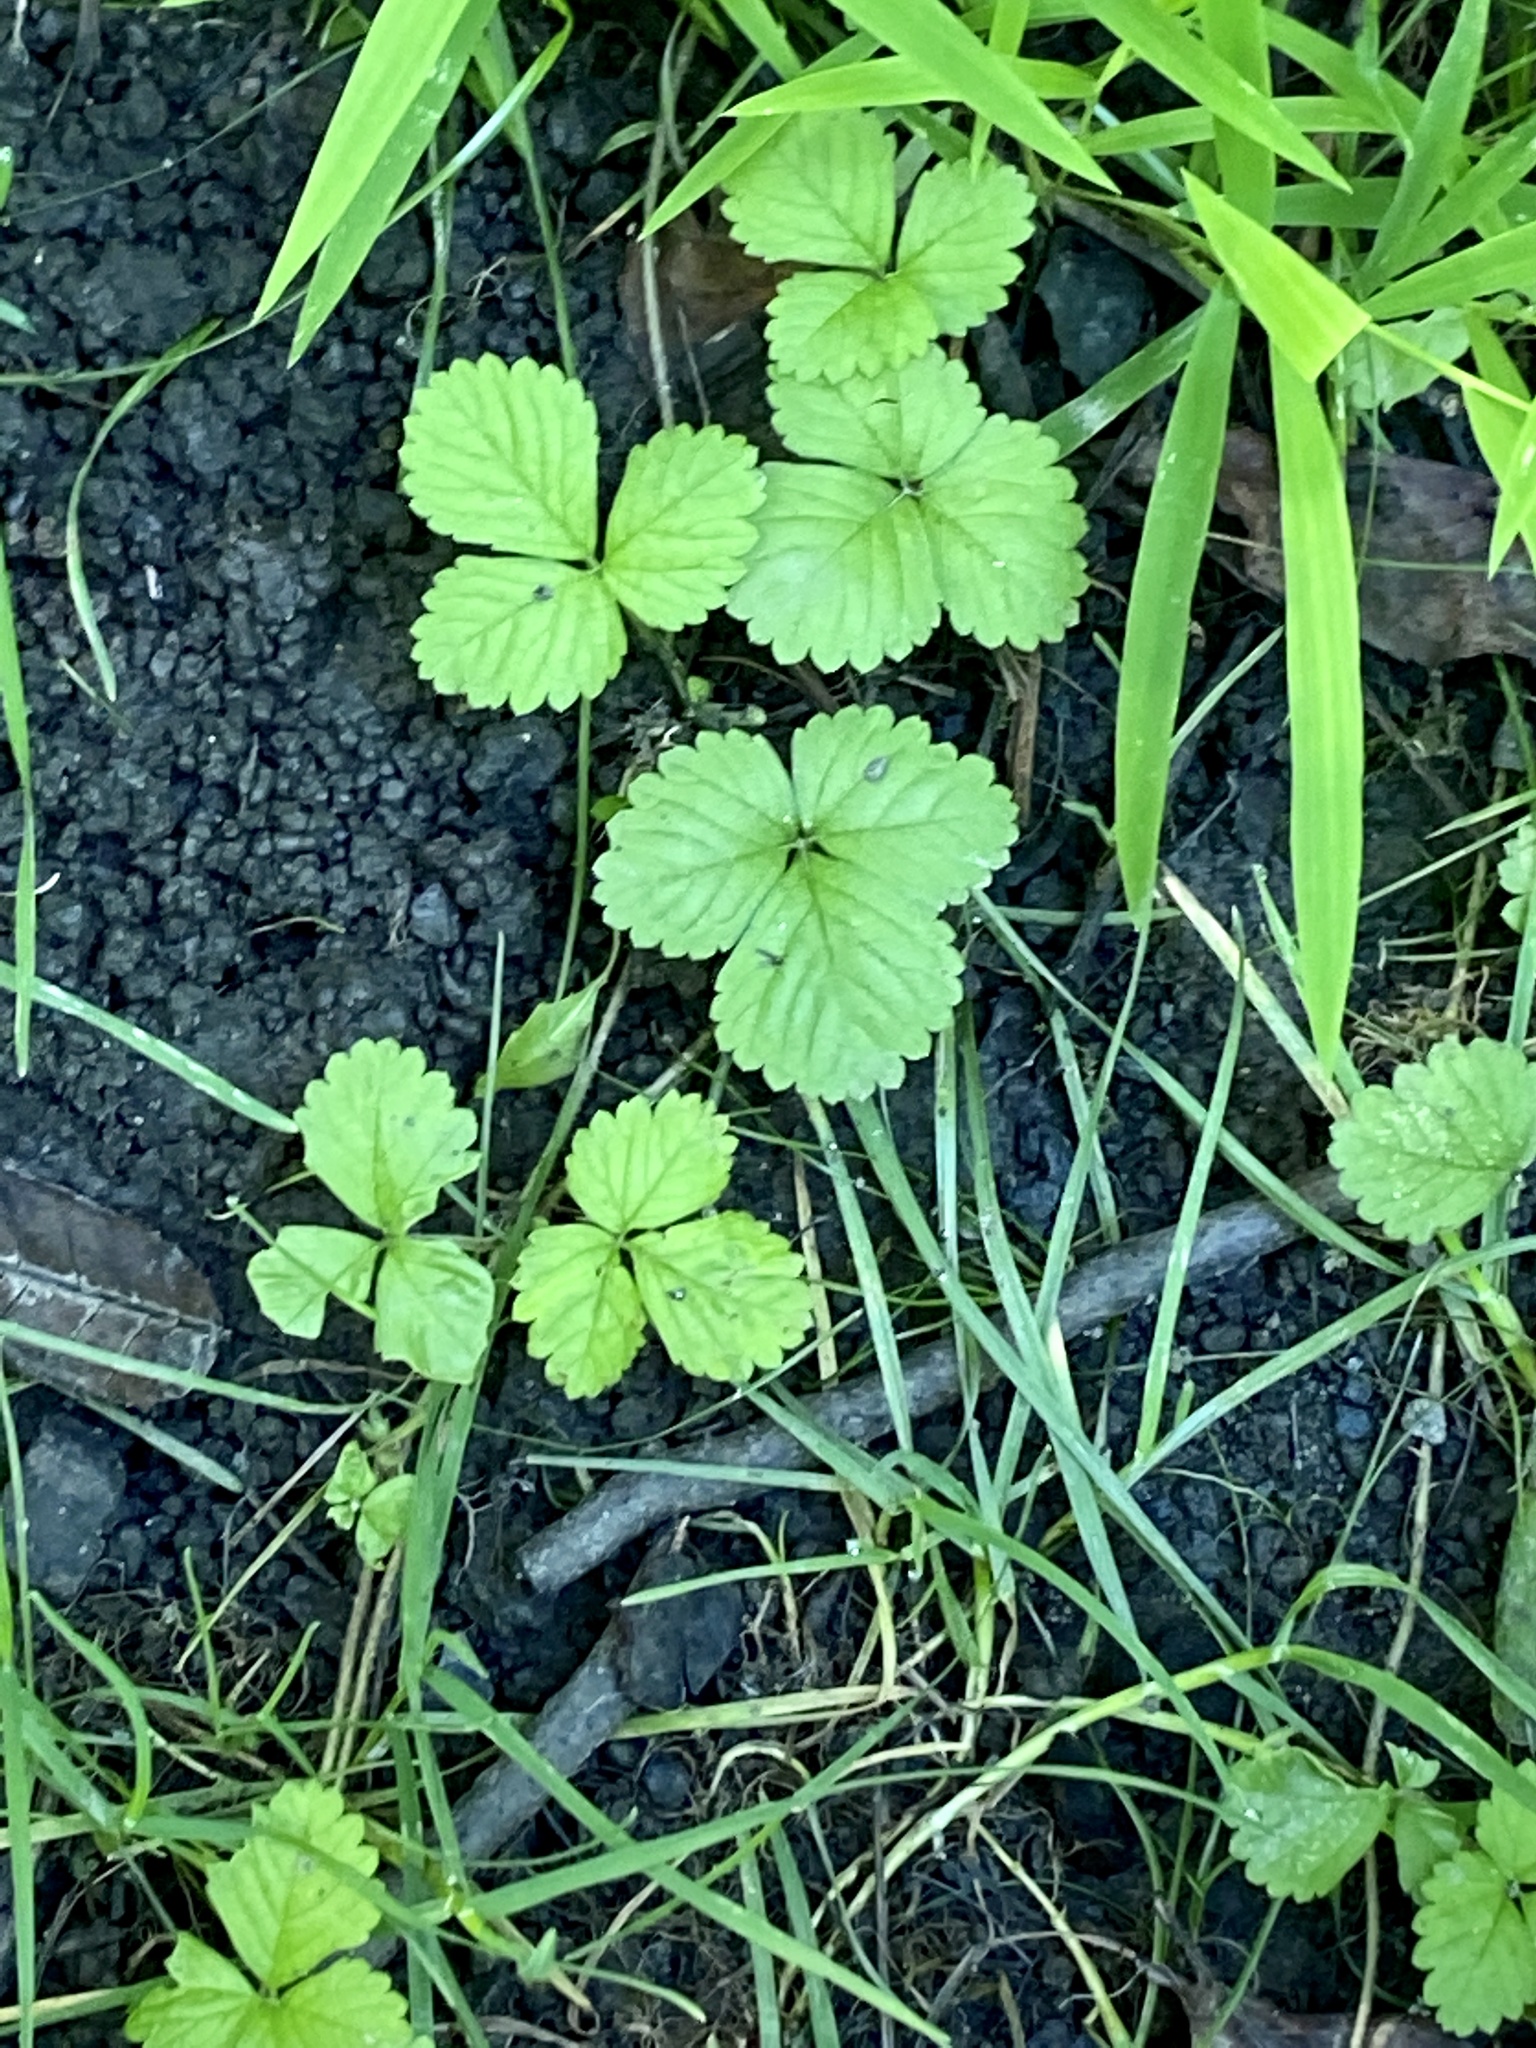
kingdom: Plantae
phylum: Tracheophyta
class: Magnoliopsida
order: Rosales
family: Rosaceae
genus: Potentilla
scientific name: Potentilla indica
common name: Yellow-flowered strawberry
